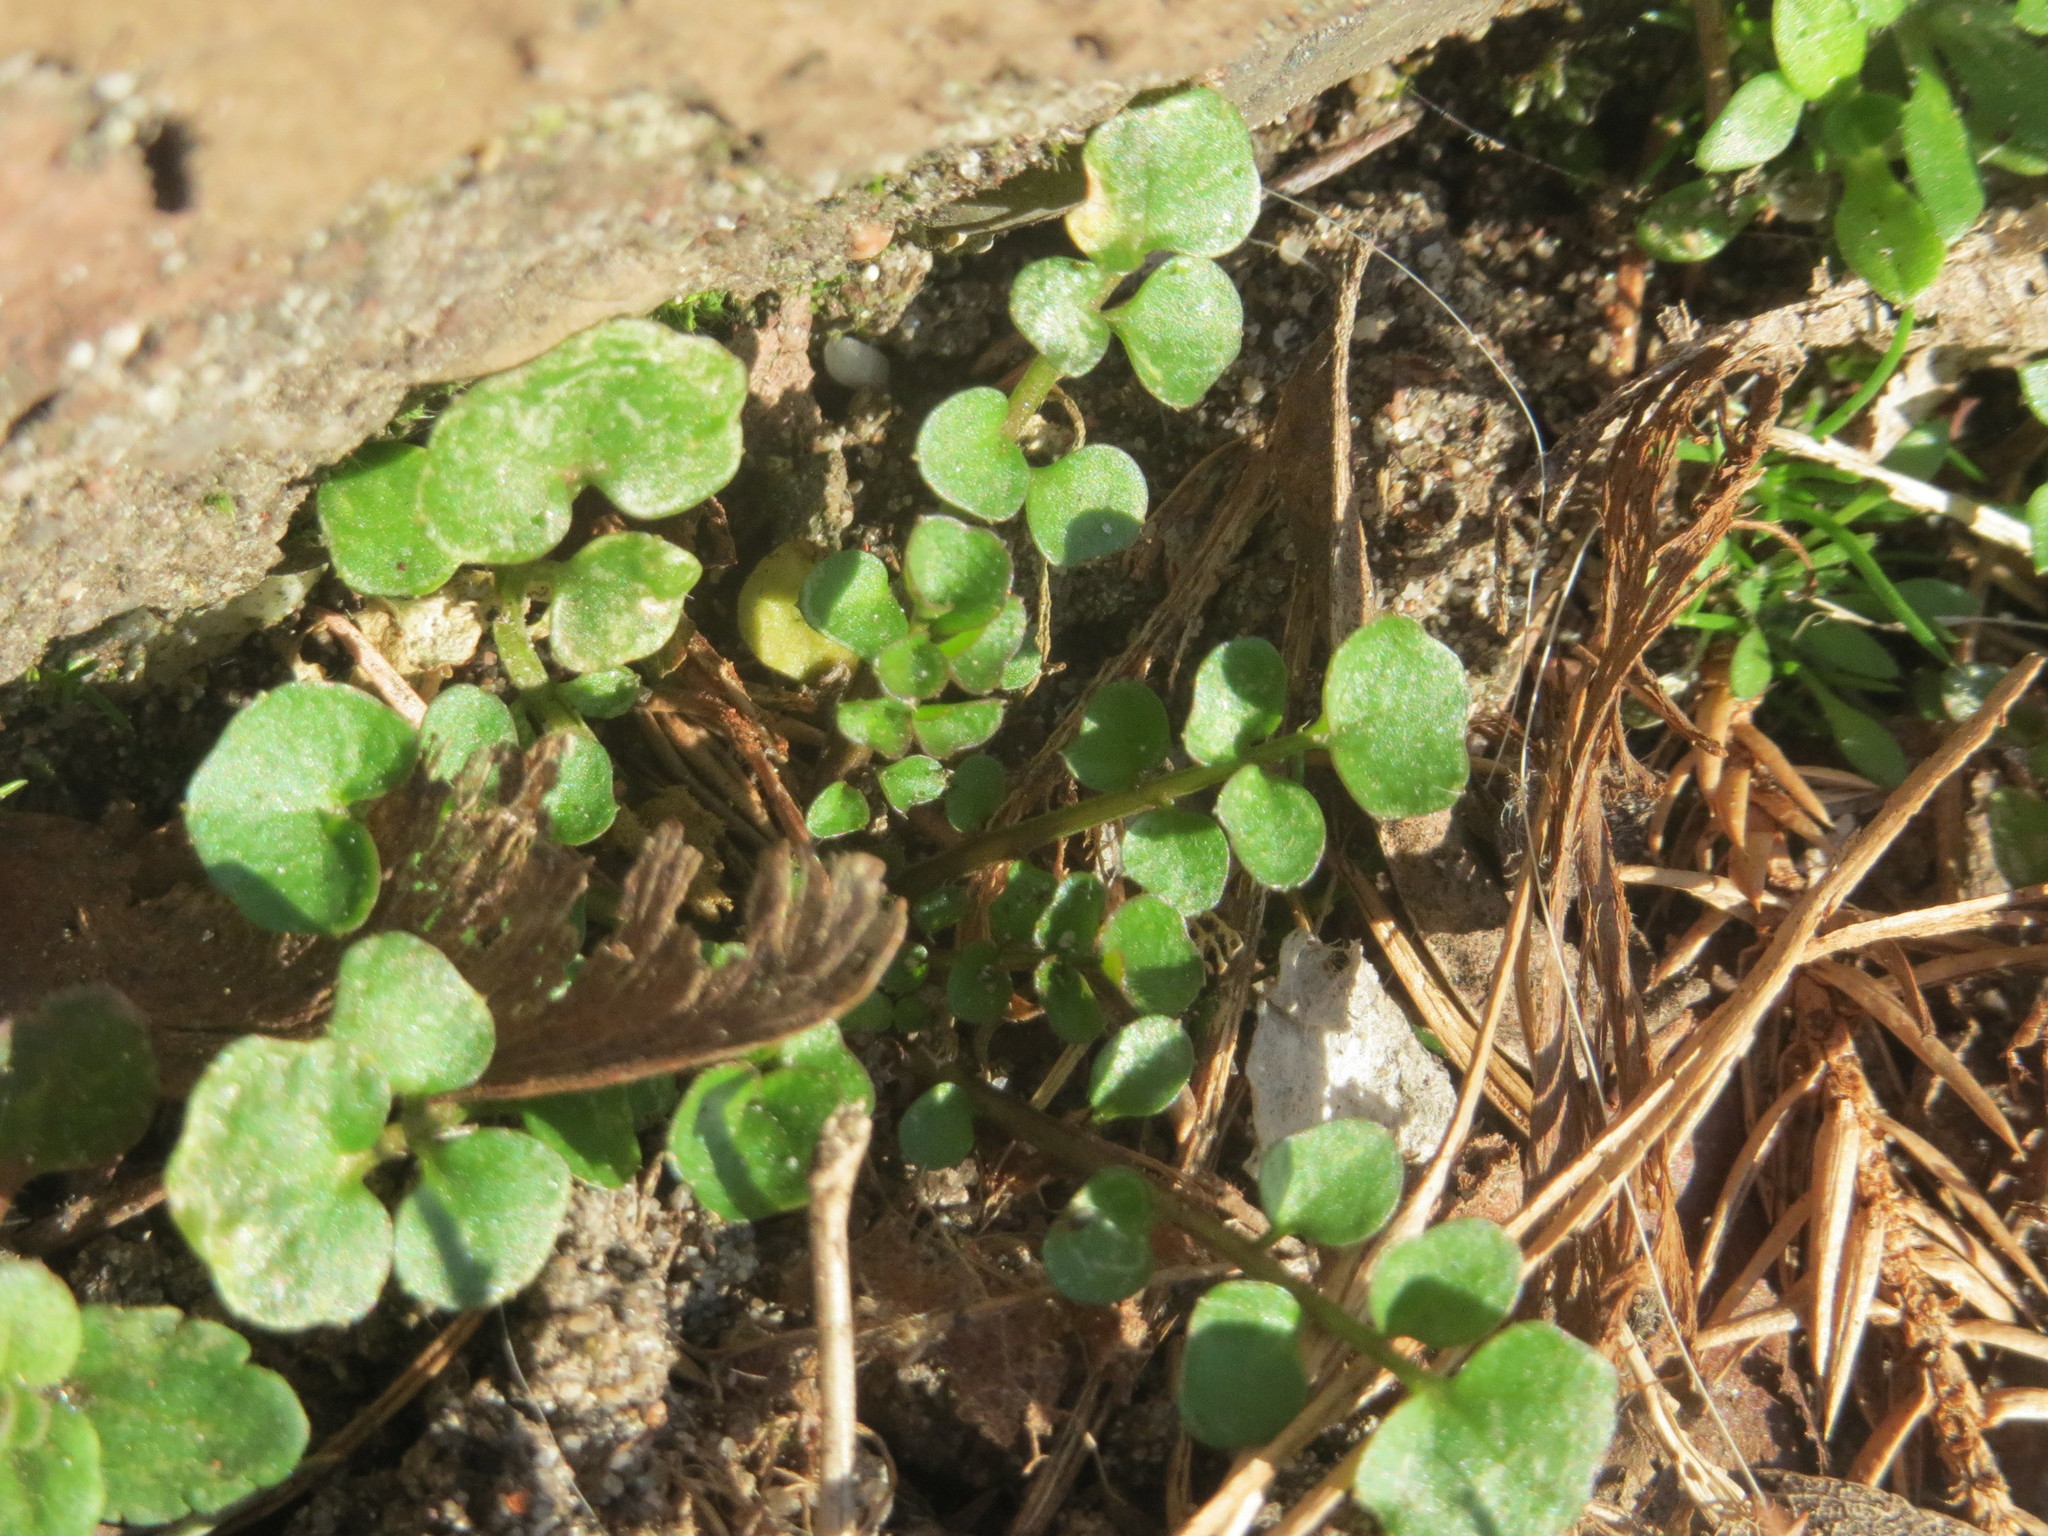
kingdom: Plantae
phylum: Tracheophyta
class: Magnoliopsida
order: Brassicales
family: Brassicaceae
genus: Cardamine
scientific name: Cardamine hirsuta
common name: Hairy bittercress
